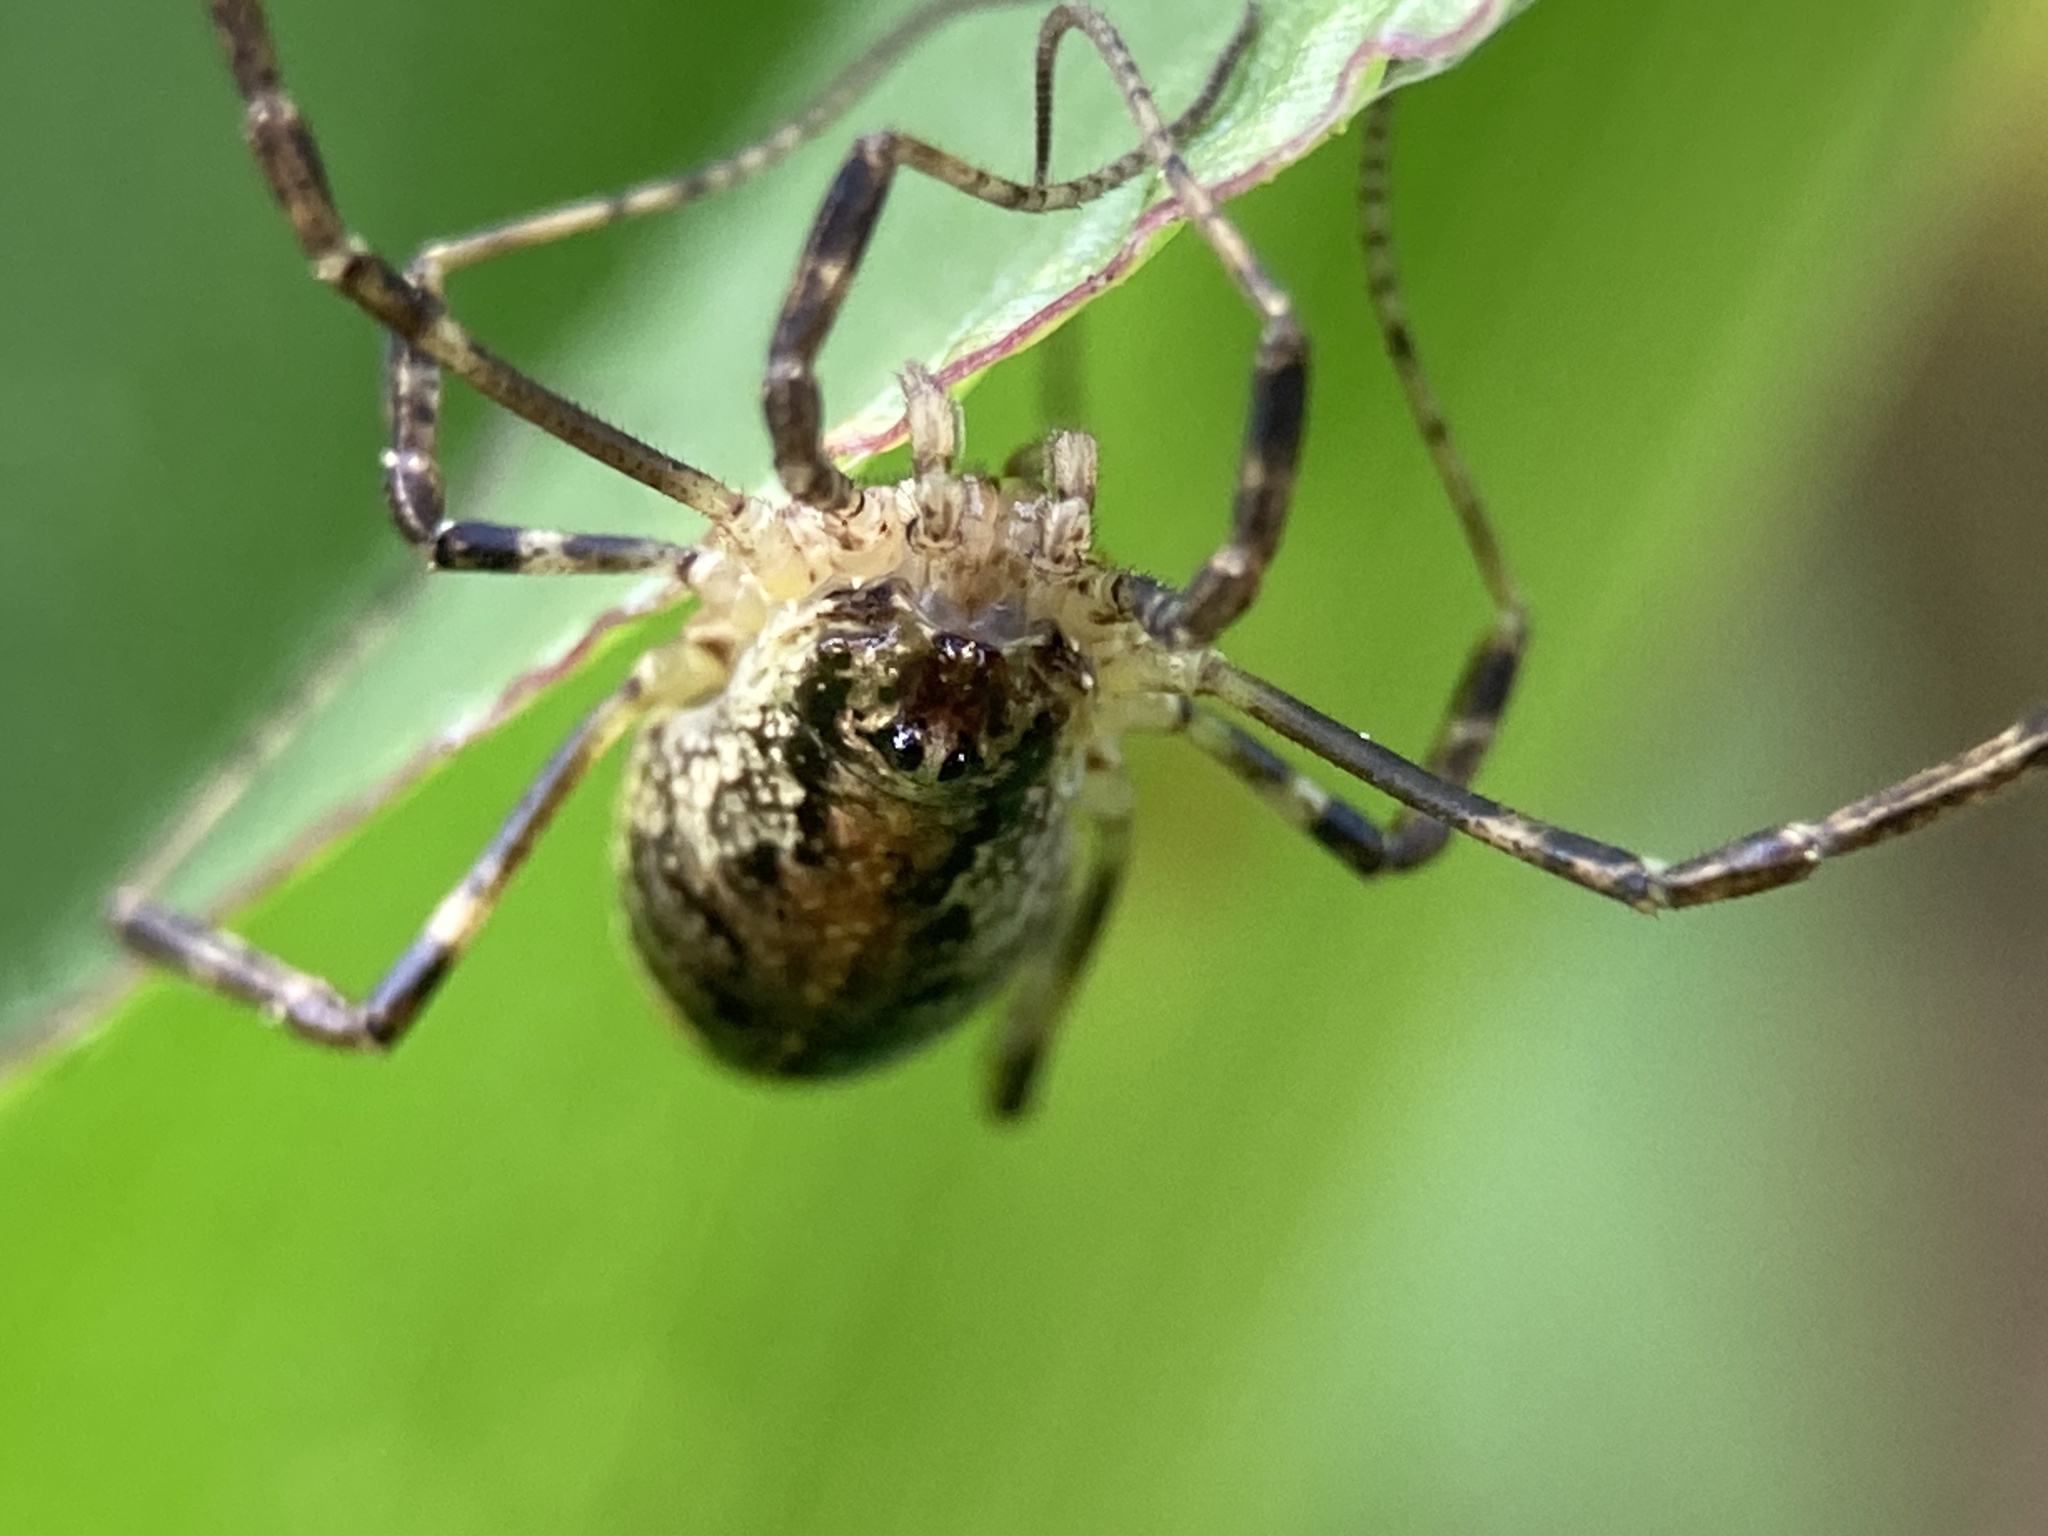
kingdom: Animalia
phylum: Arthropoda
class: Arachnida
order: Opiliones
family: Phalangiidae
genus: Paroligolophus
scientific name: Paroligolophus agrestis
